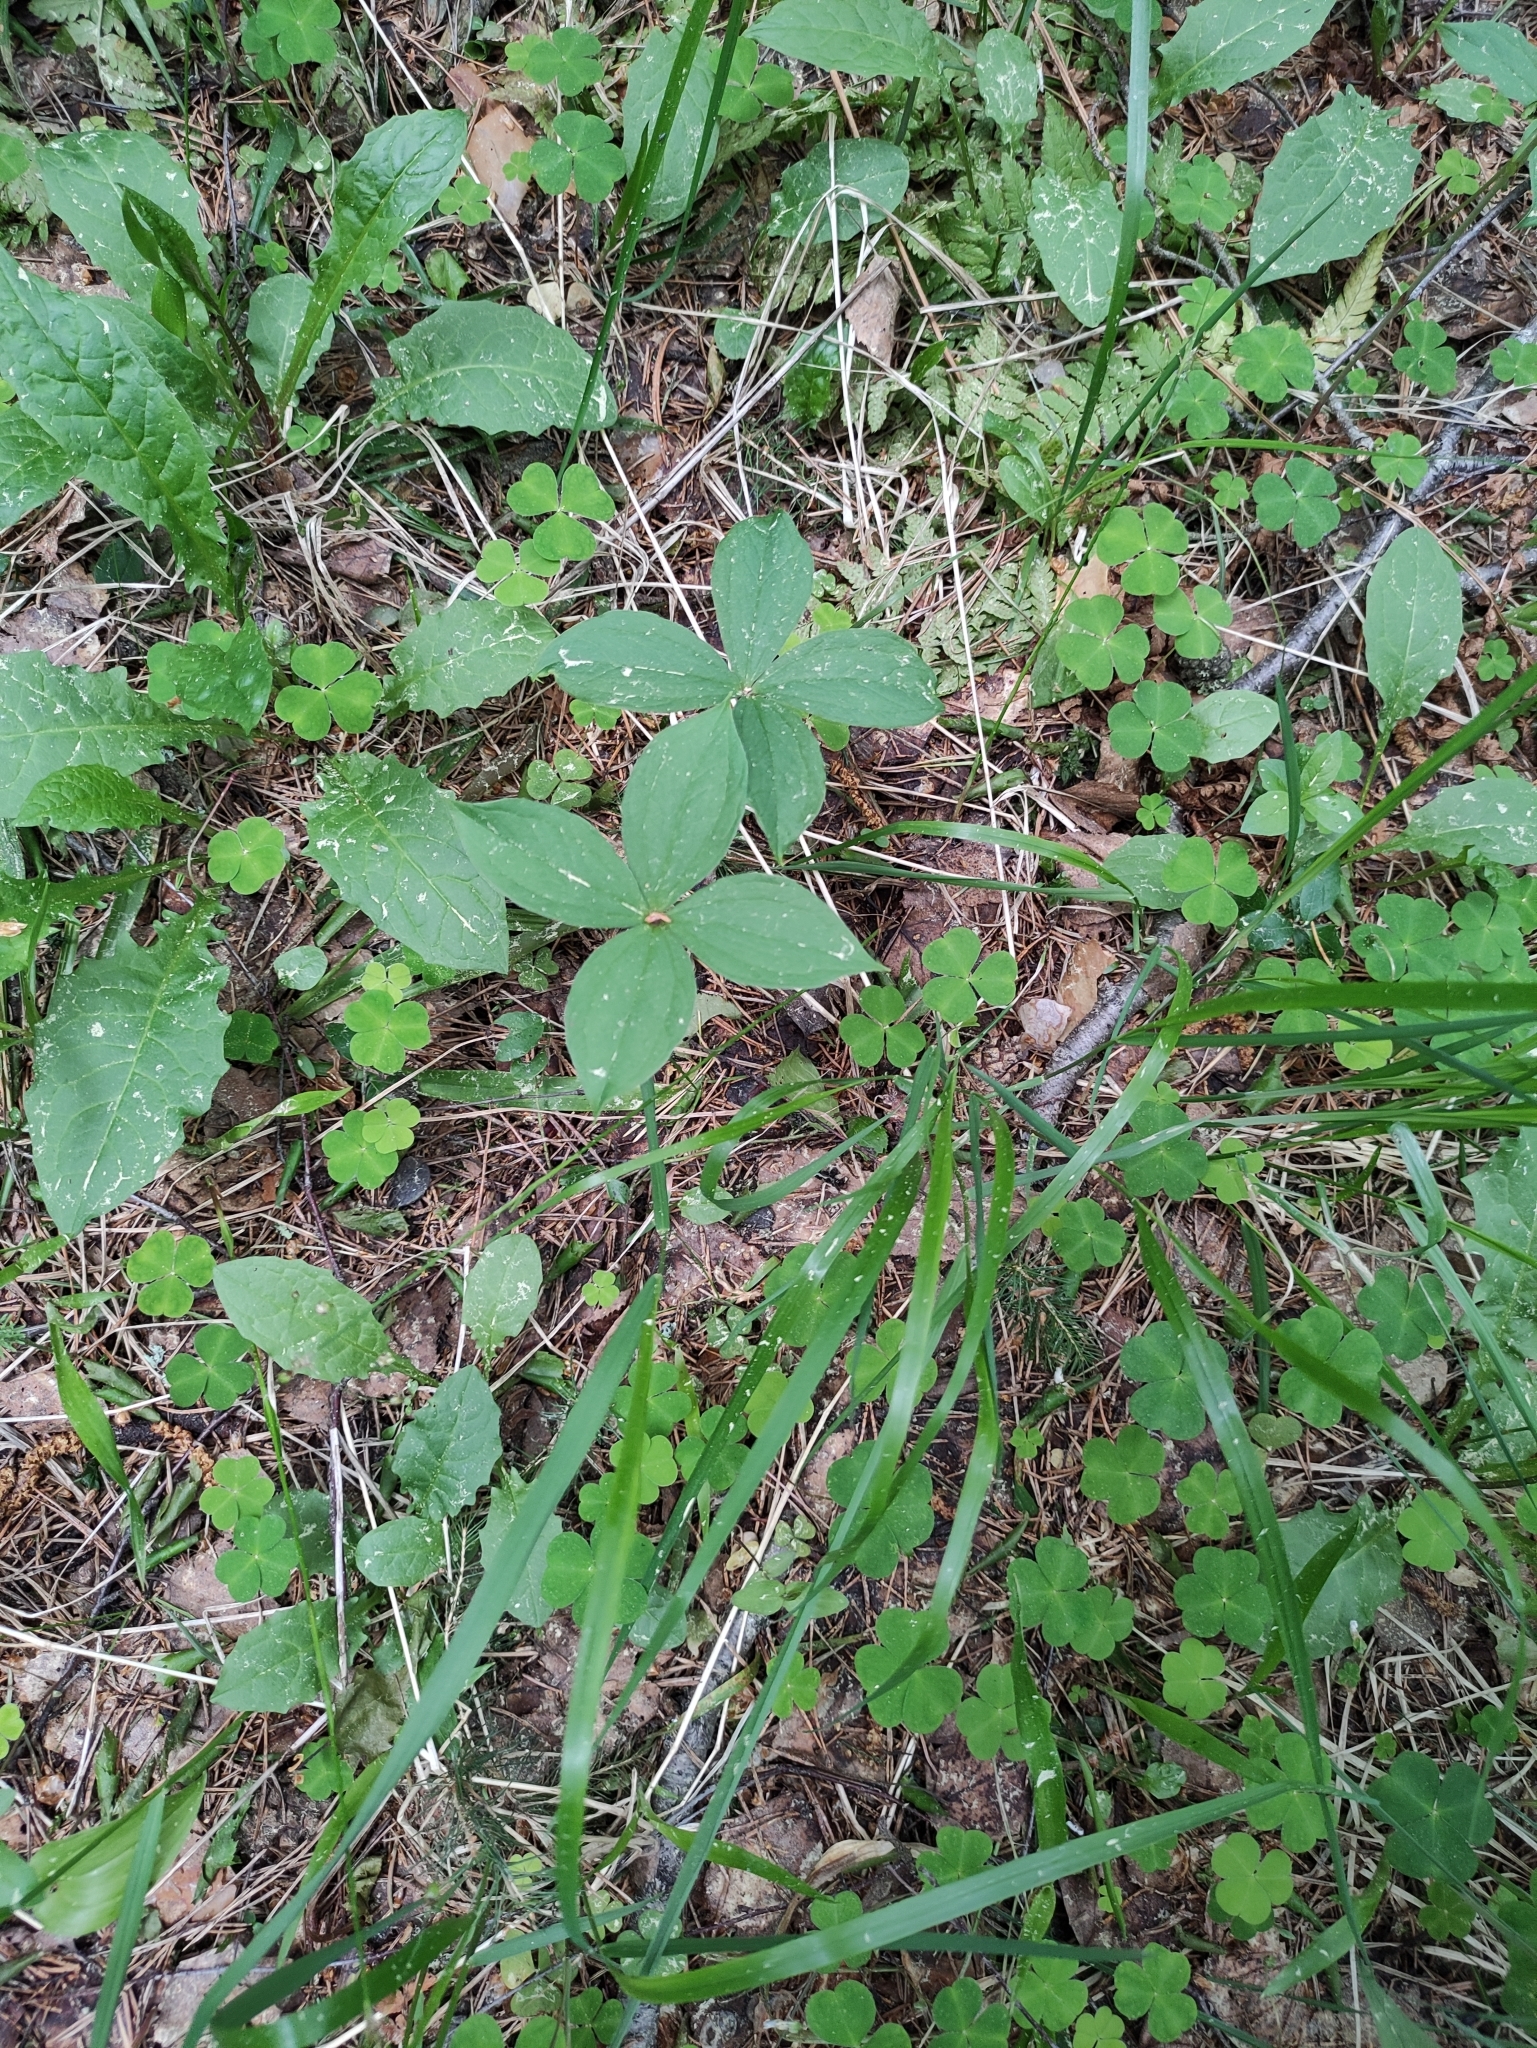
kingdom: Plantae
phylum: Tracheophyta
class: Liliopsida
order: Liliales
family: Melanthiaceae
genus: Paris
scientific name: Paris quadrifolia
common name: Herb-paris
